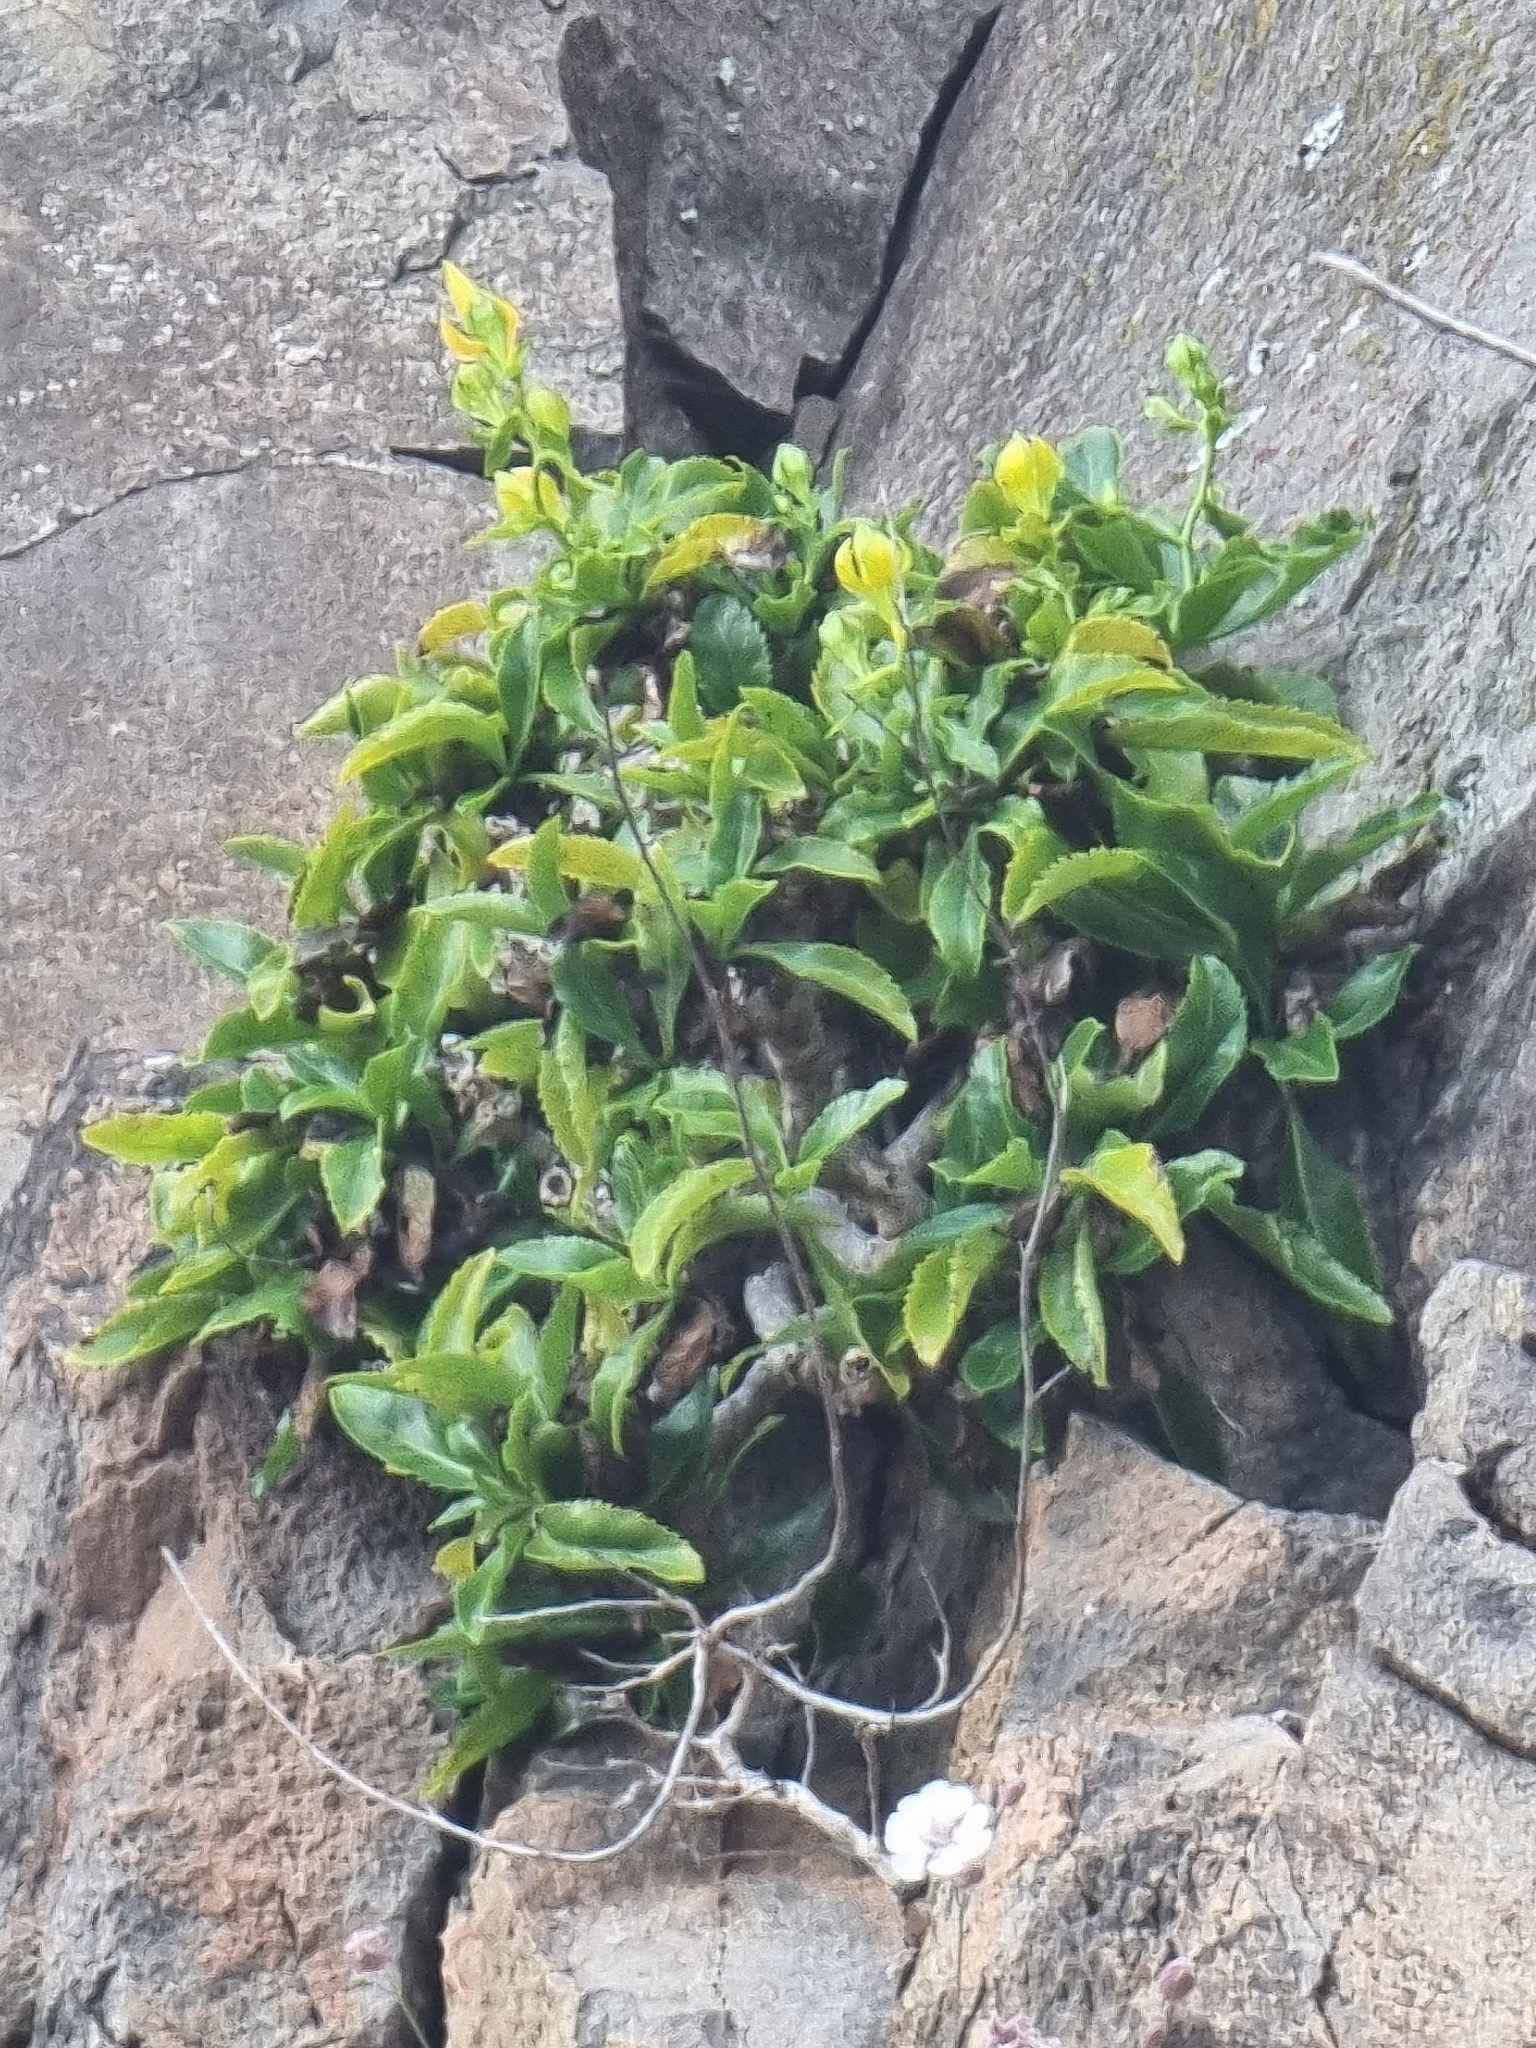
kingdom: Plantae
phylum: Tracheophyta
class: Magnoliopsida
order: Asterales
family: Campanulaceae
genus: Musschia
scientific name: Musschia aurea
